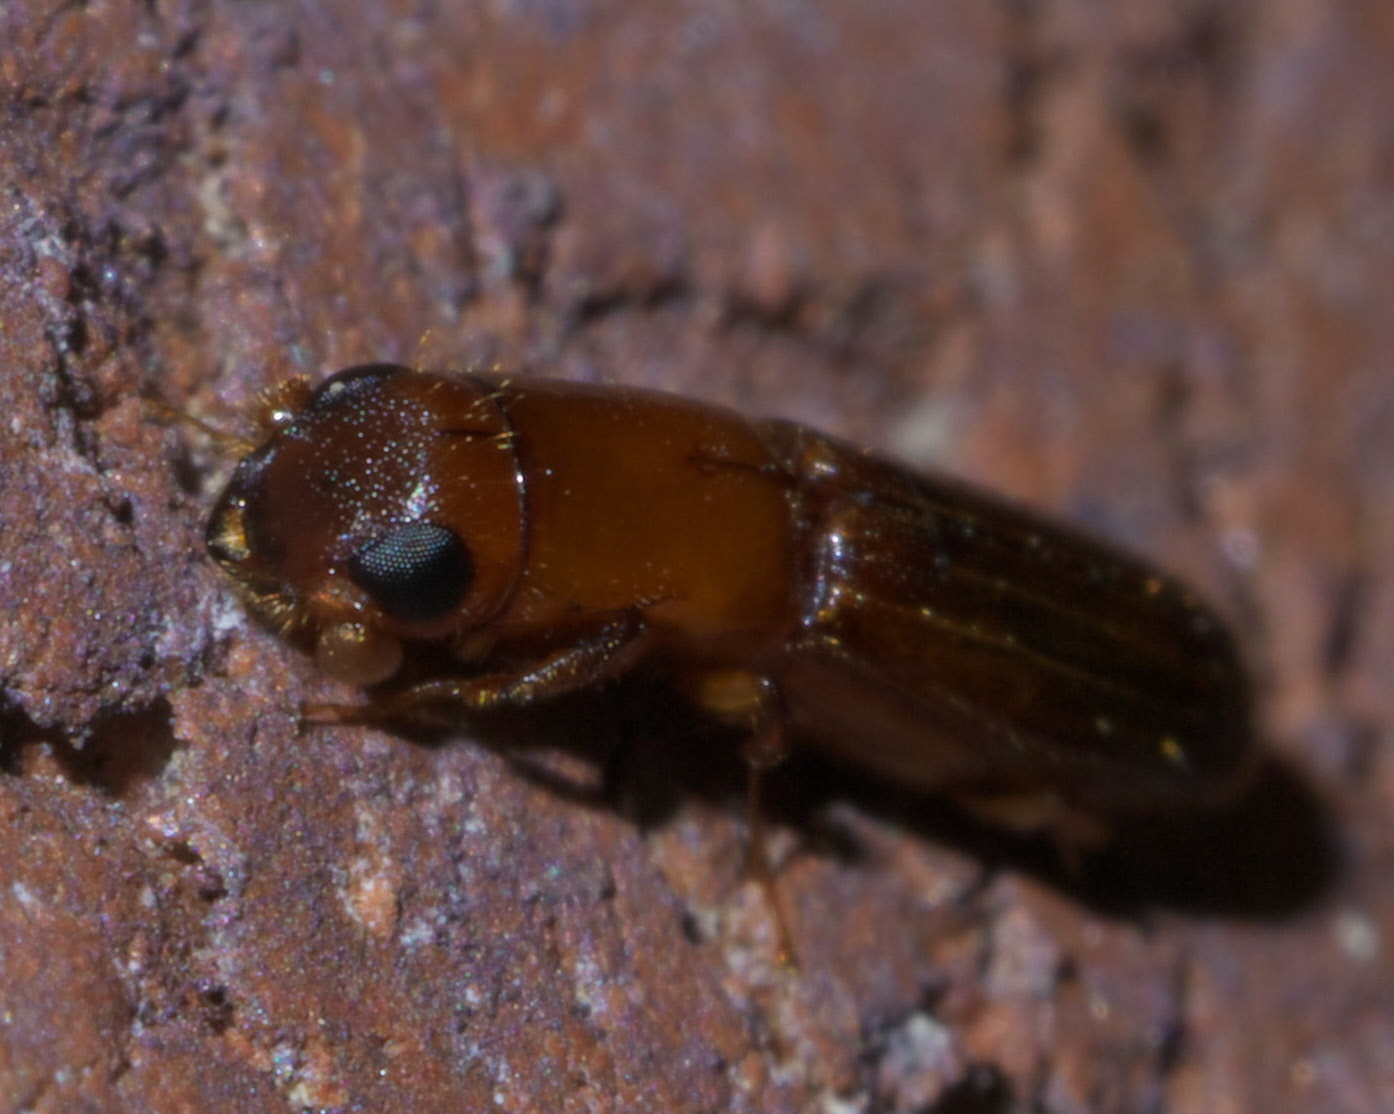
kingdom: Animalia
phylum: Arthropoda
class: Insecta
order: Coleoptera
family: Curculionidae
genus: Euplatypus
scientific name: Euplatypus compositus
